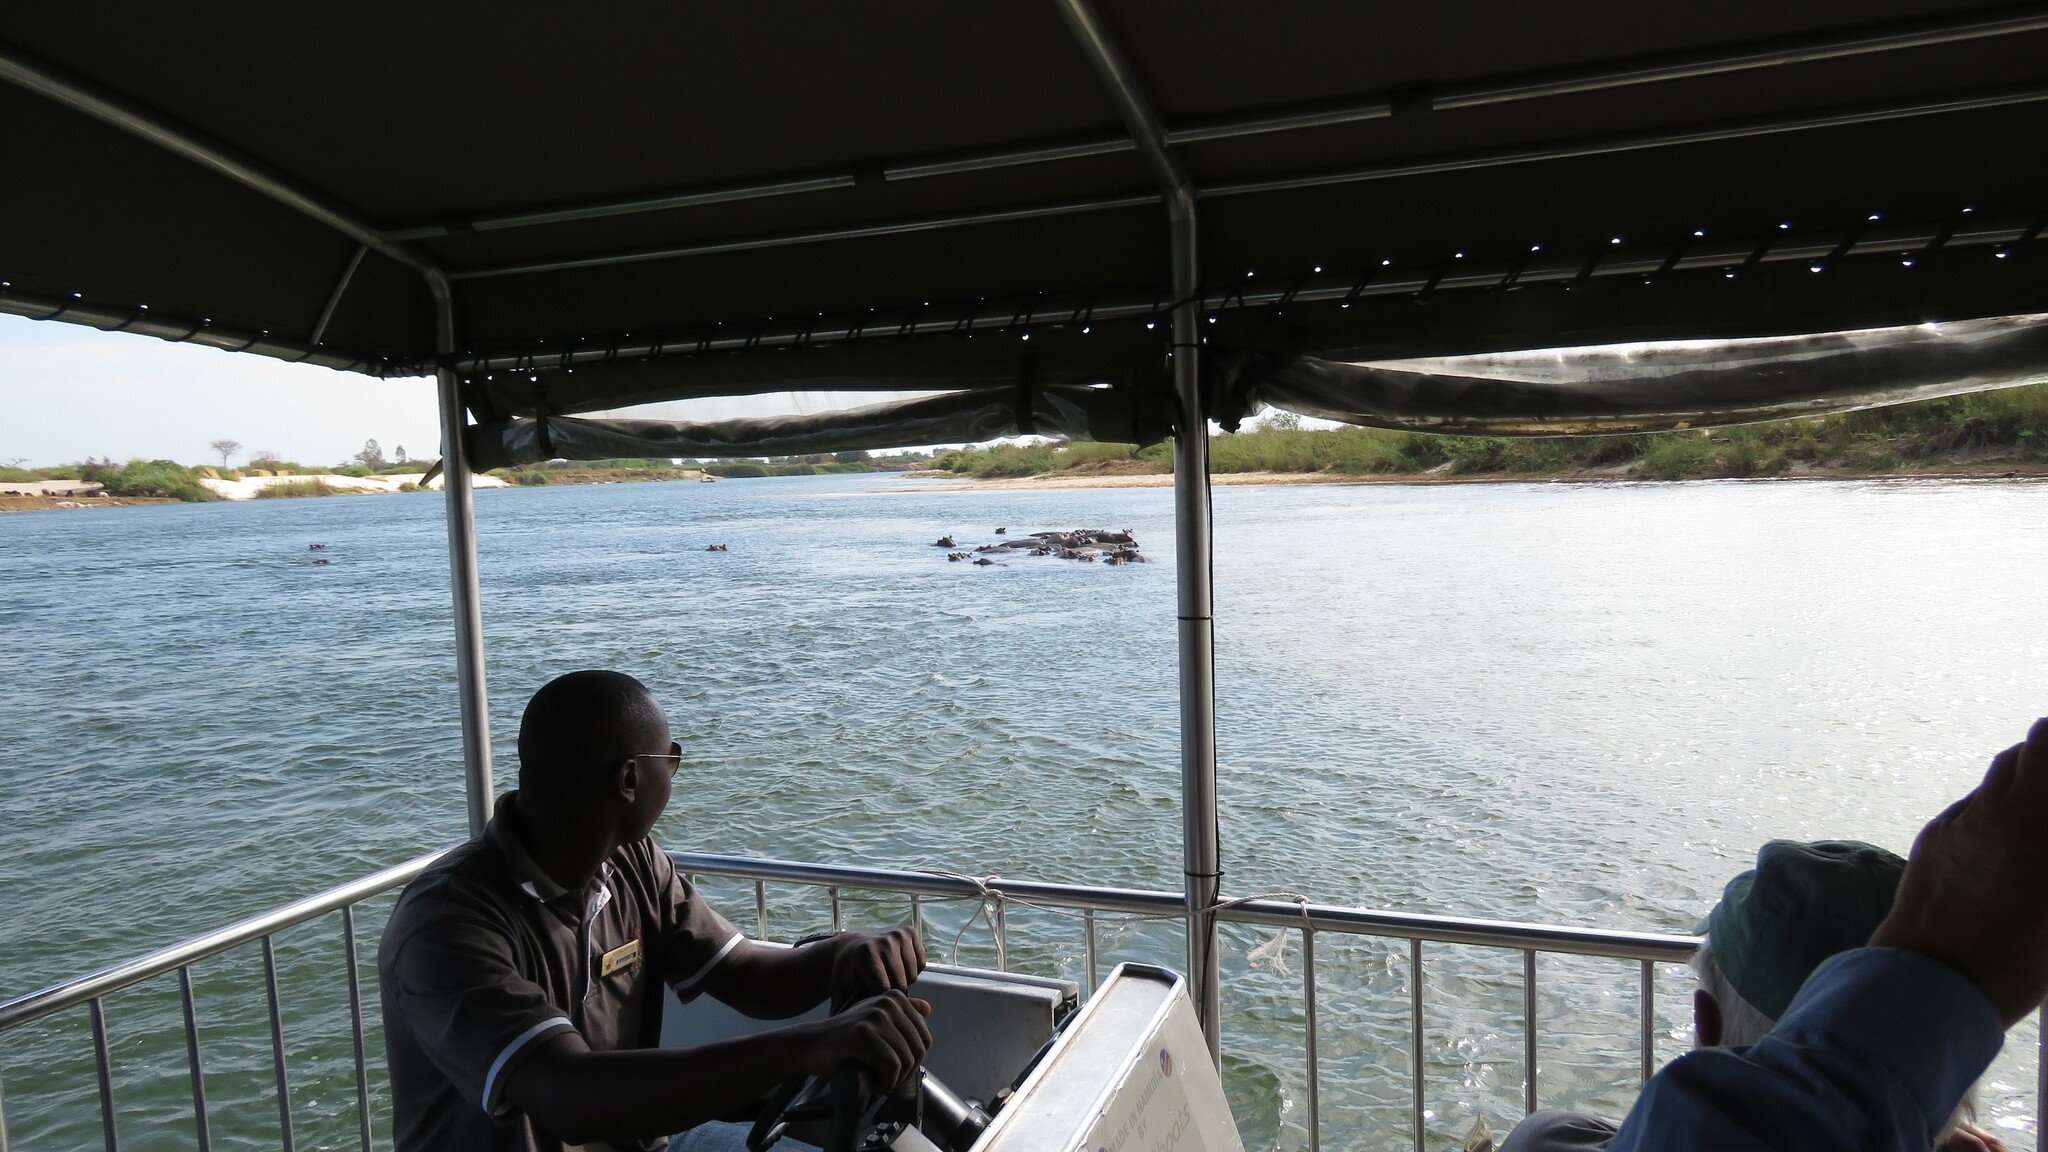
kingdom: Animalia
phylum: Chordata
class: Mammalia
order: Artiodactyla
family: Hippopotamidae
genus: Hippopotamus
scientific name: Hippopotamus amphibius
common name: Common hippopotamus
